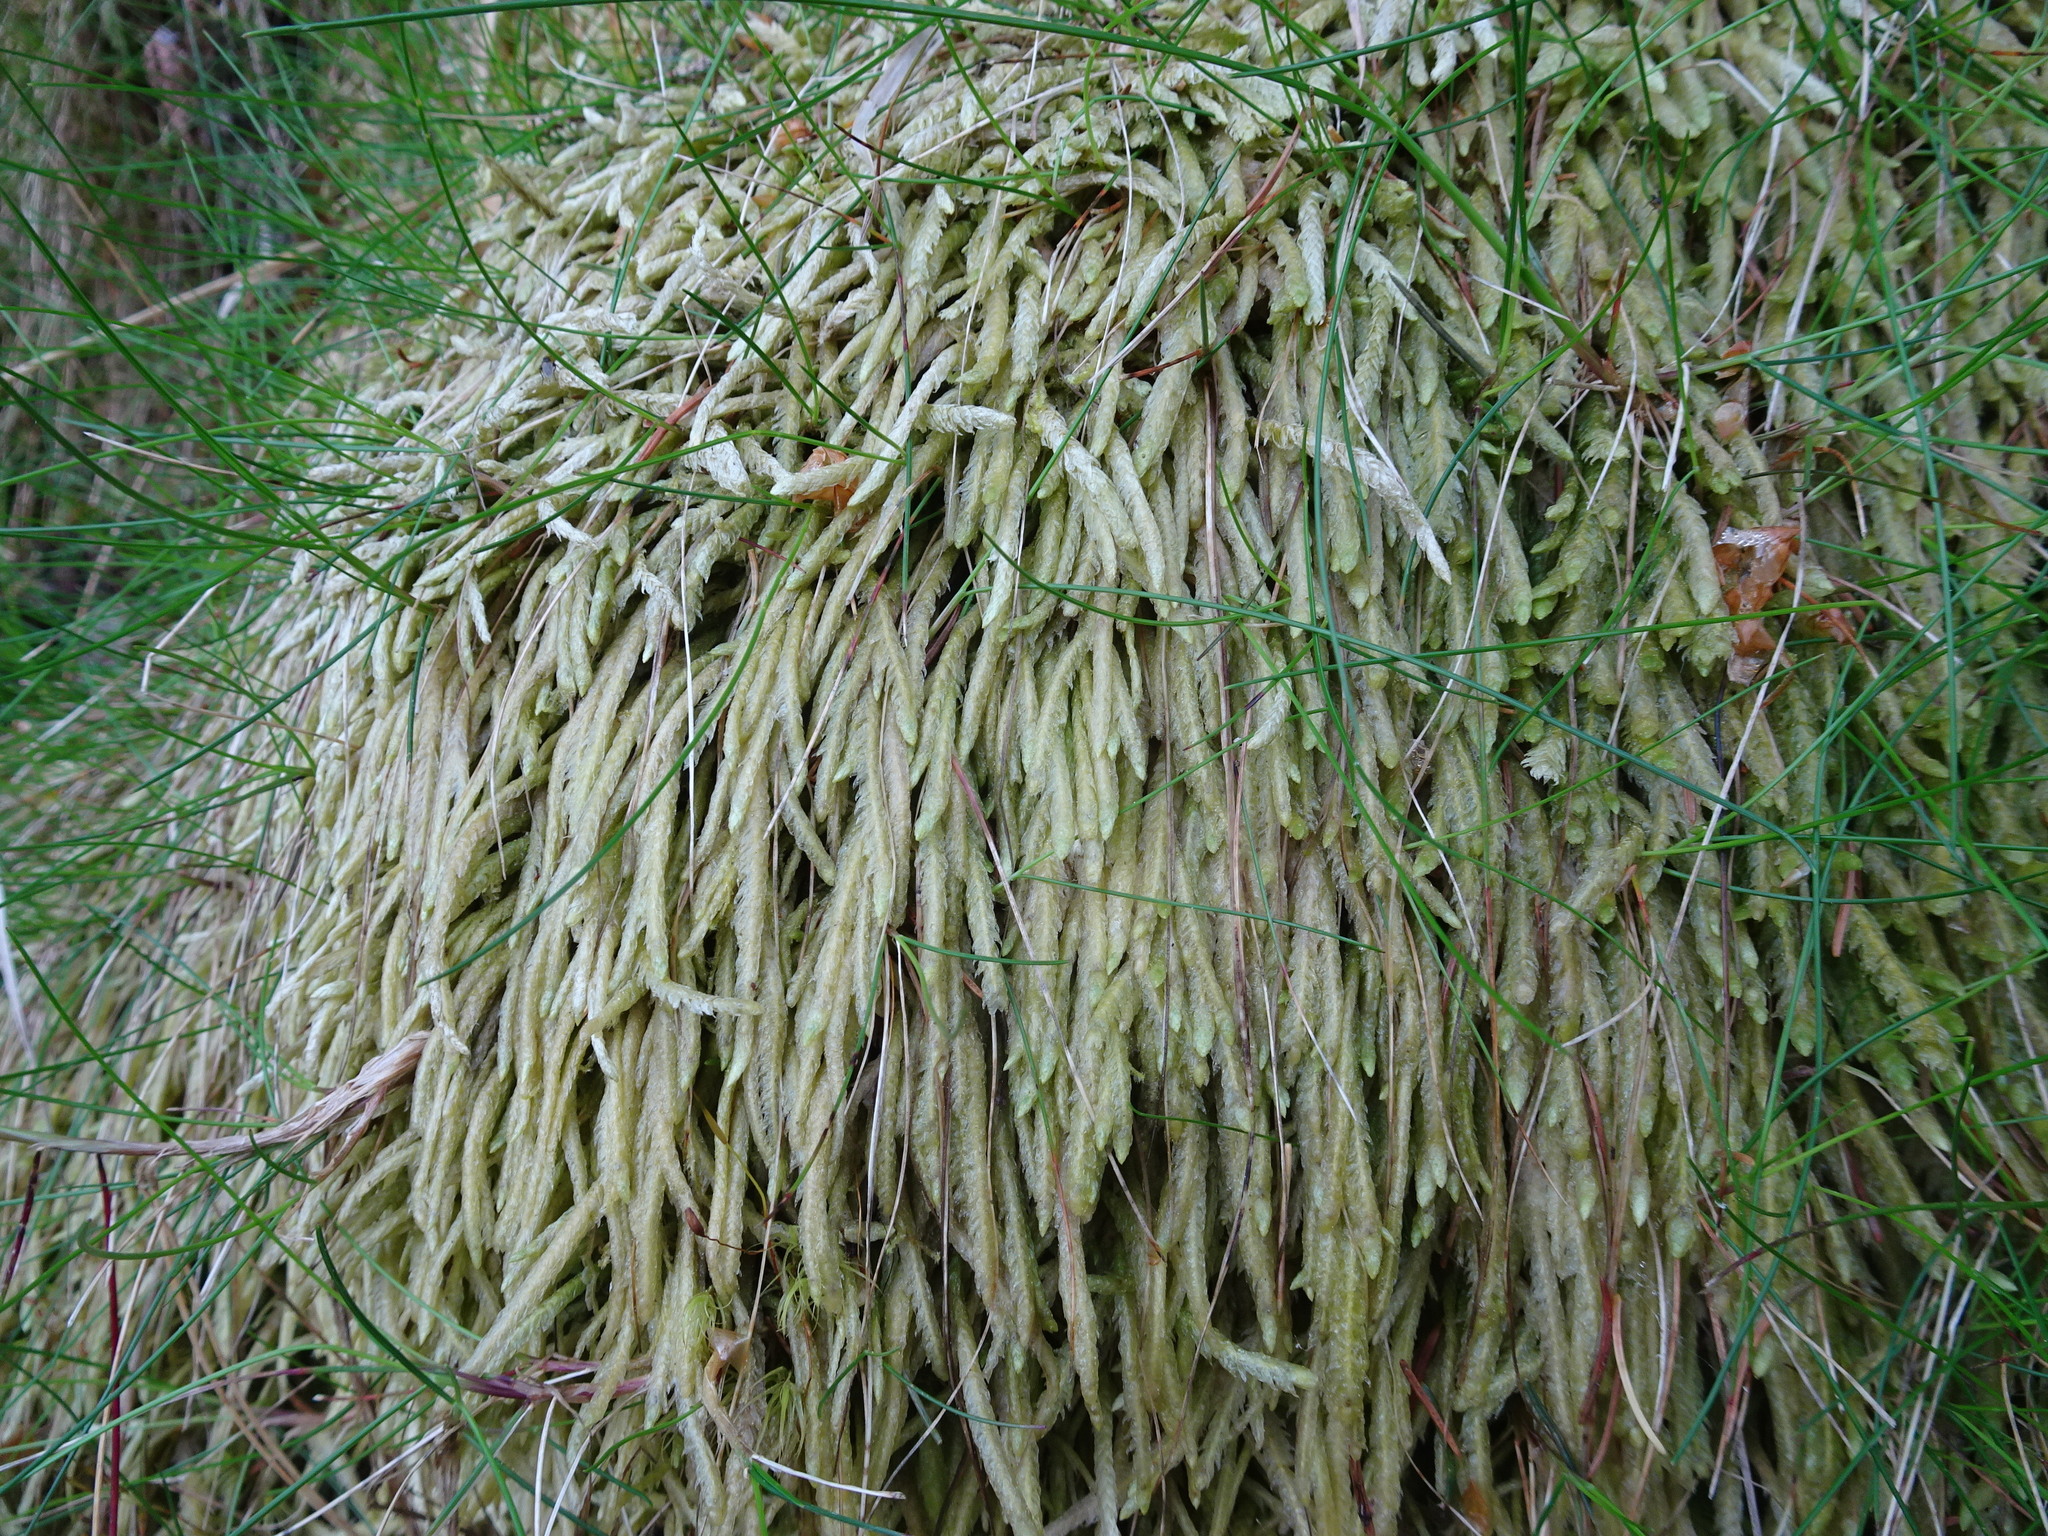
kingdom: Plantae
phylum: Bryophyta
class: Bryopsida
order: Hypnales
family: Plagiotheciaceae
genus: Plagiothecium
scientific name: Plagiothecium undulatum
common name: Waved silk-moss
